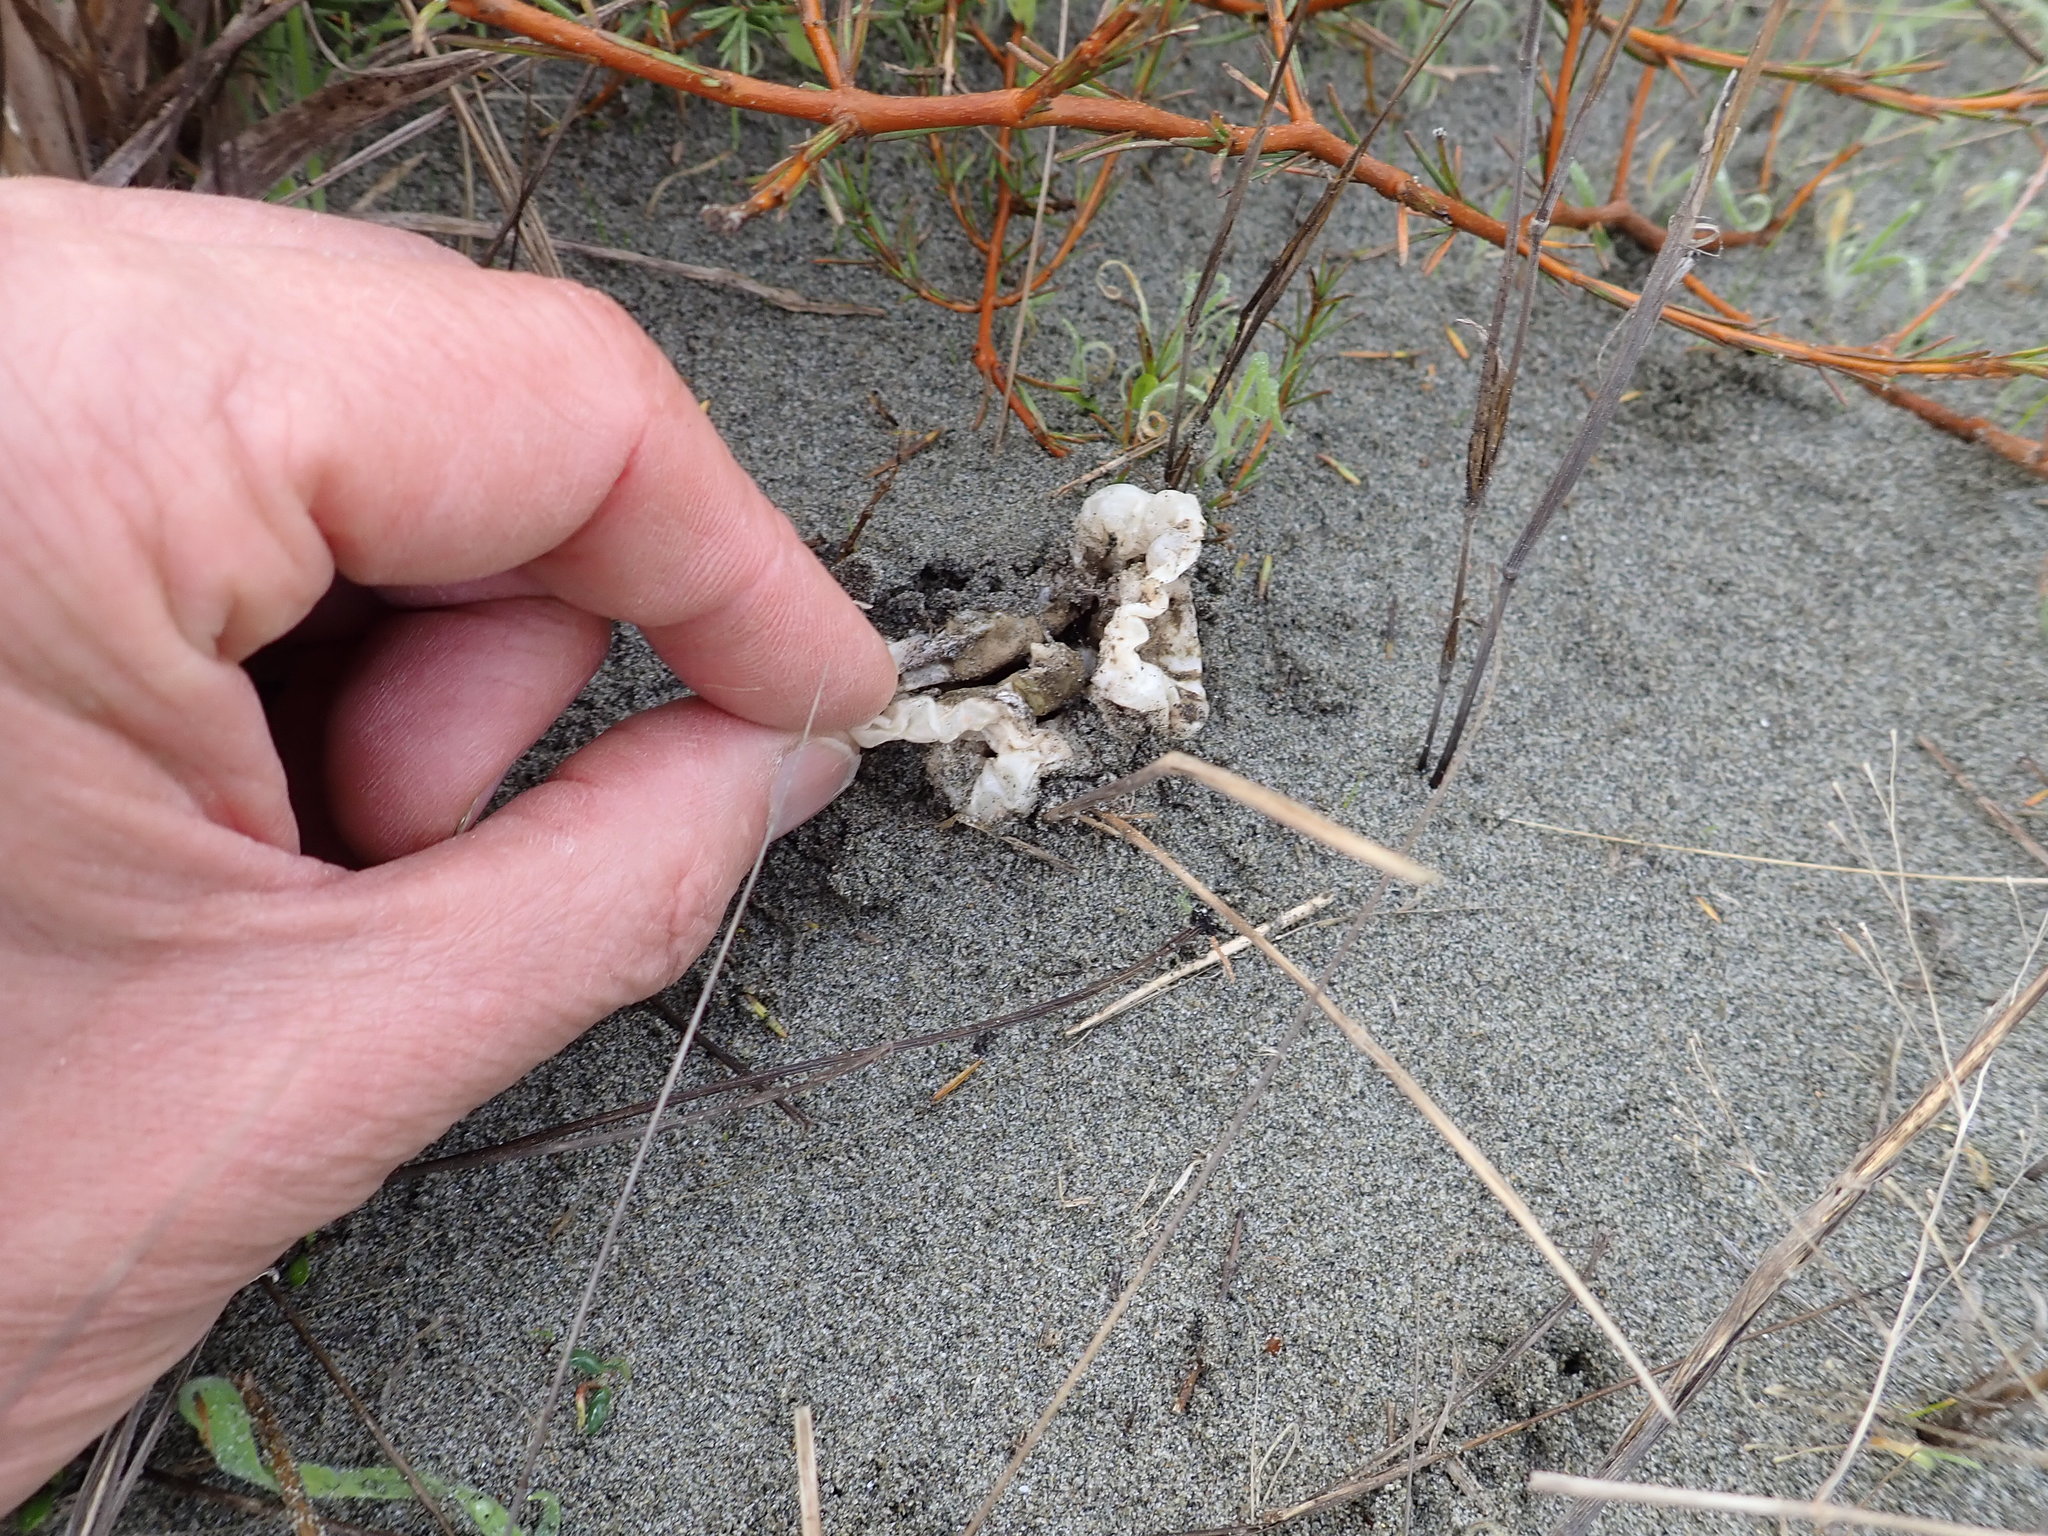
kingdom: Fungi
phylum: Basidiomycota
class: Agaricomycetes
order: Phallales
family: Phallaceae
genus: Ileodictyon
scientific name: Ileodictyon cibarium
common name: Basket fungus
